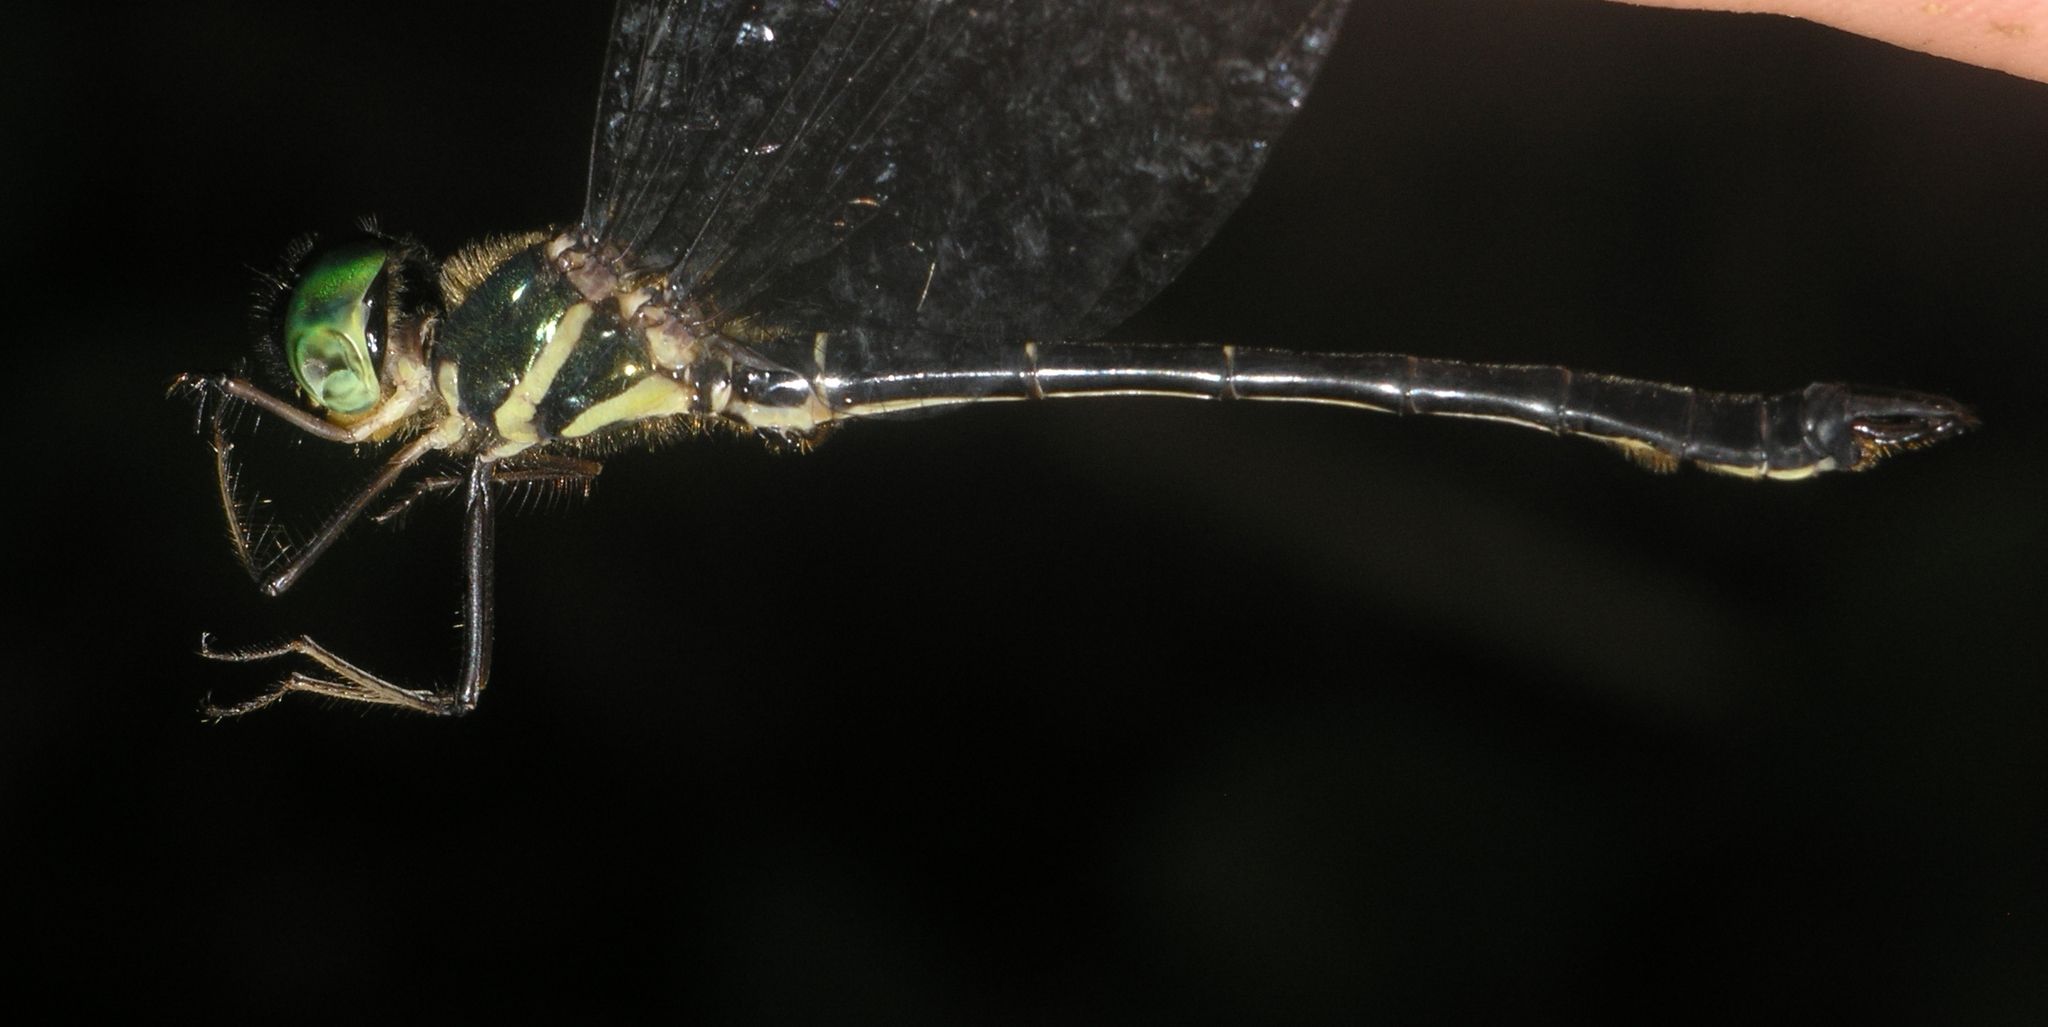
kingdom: Animalia
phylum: Arthropoda
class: Insecta
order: Odonata
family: Synthemistidae
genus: Idionyx
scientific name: Idionyx thailandicus
